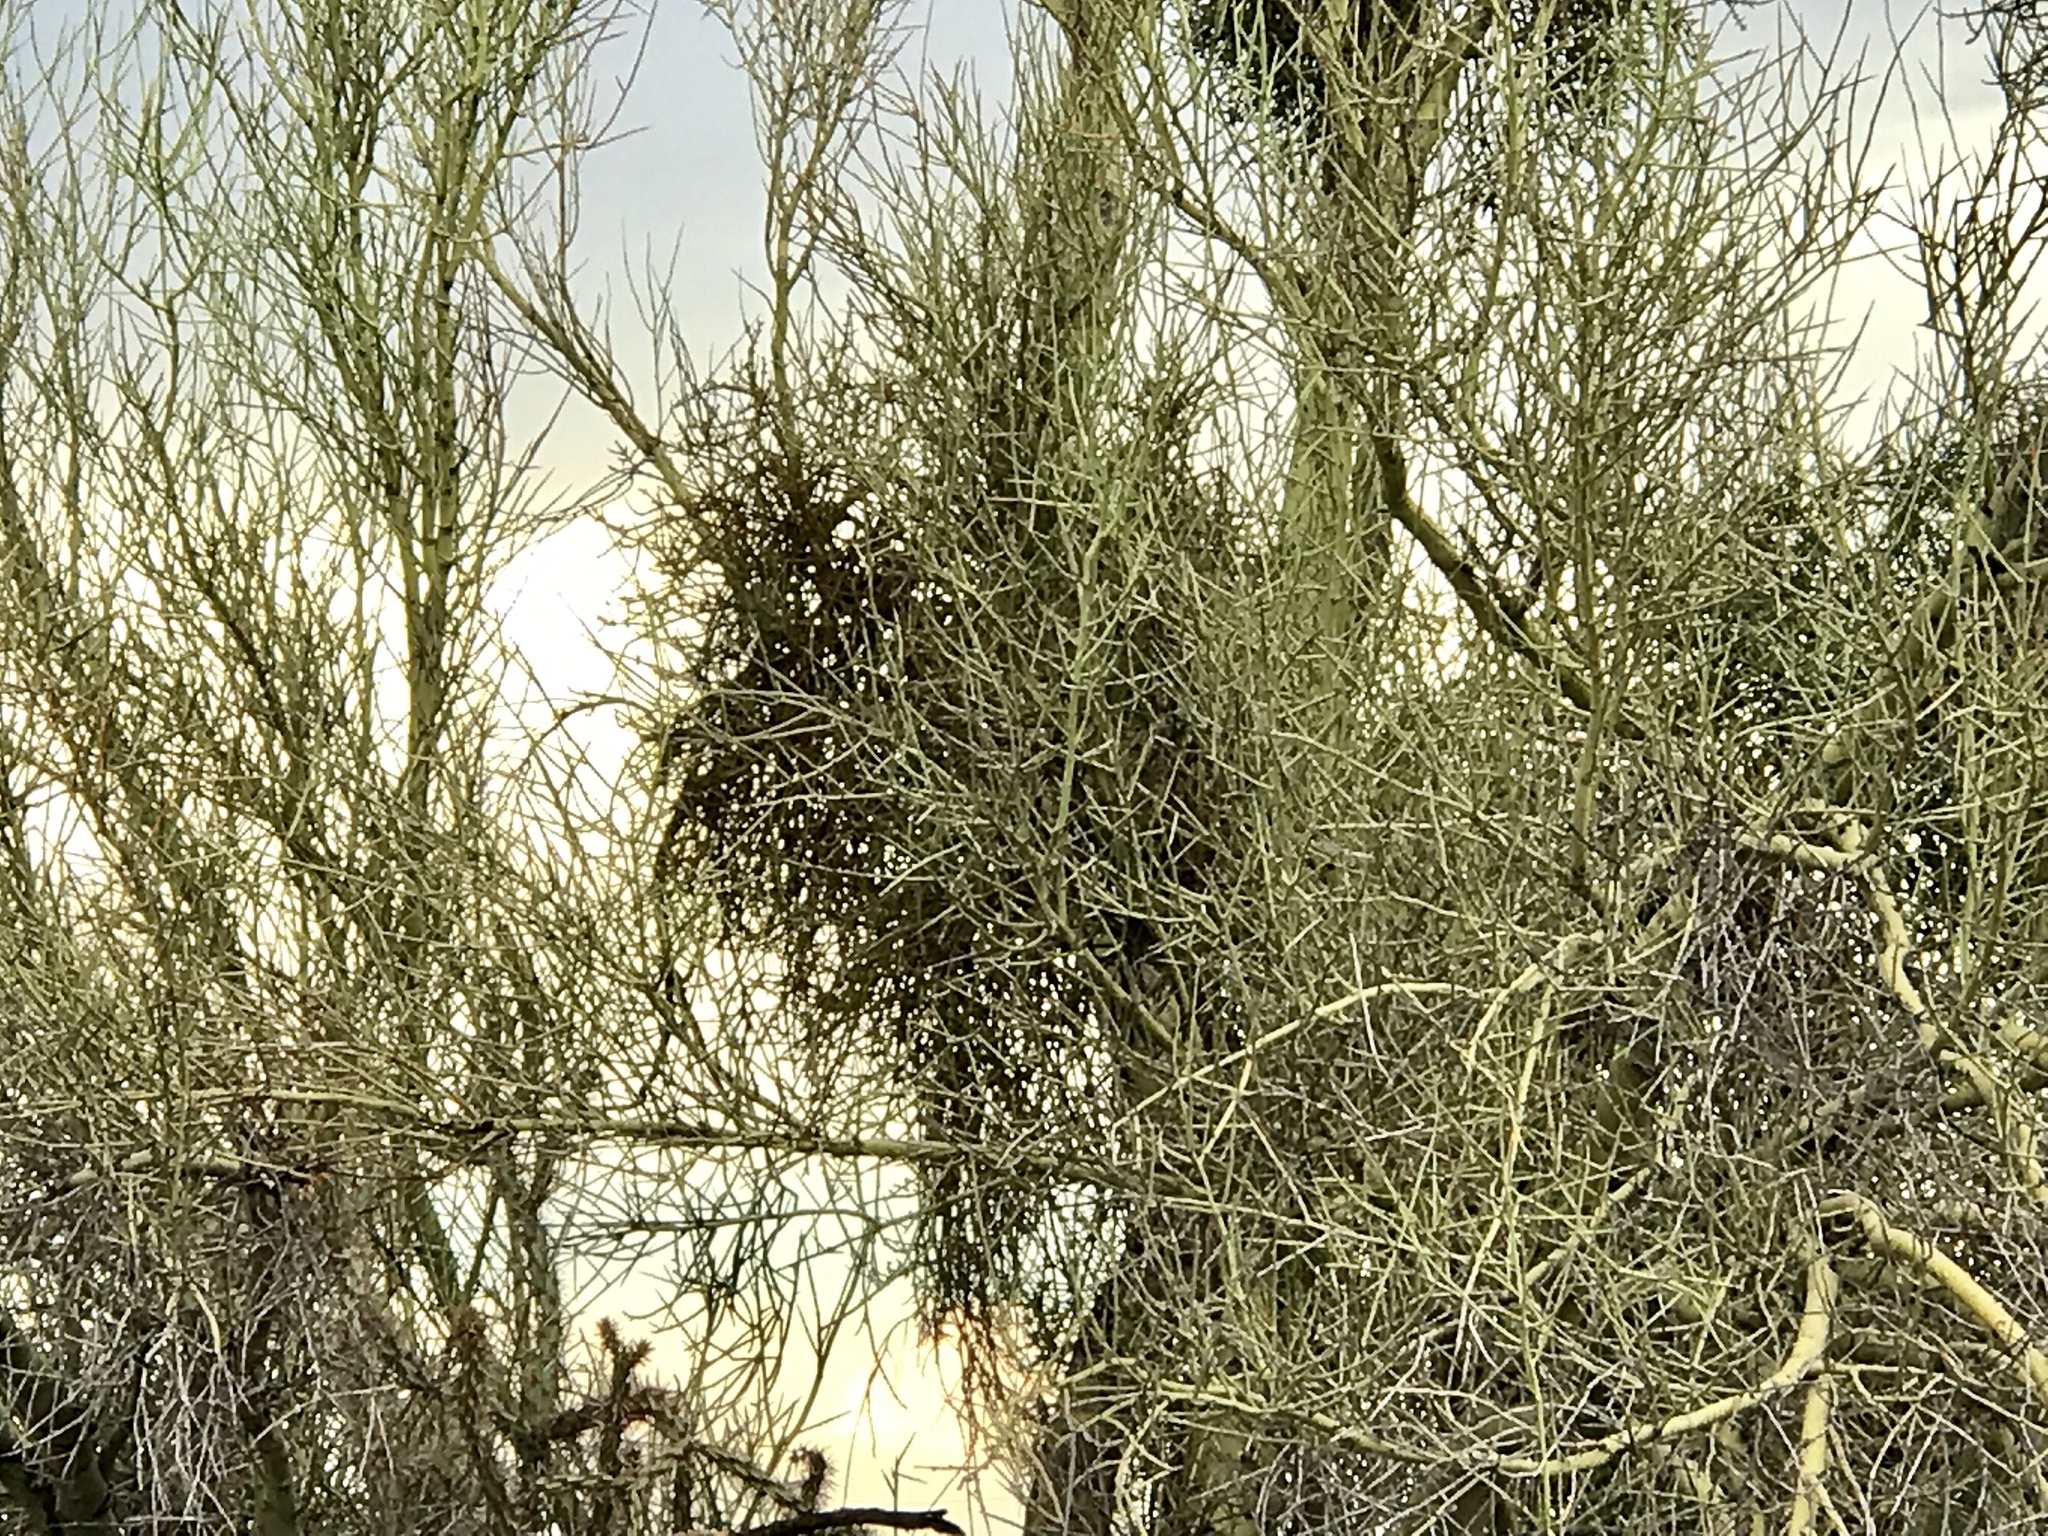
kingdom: Plantae
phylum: Tracheophyta
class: Magnoliopsida
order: Santalales
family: Viscaceae
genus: Phoradendron
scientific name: Phoradendron californicum
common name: Acacia mistletoe
